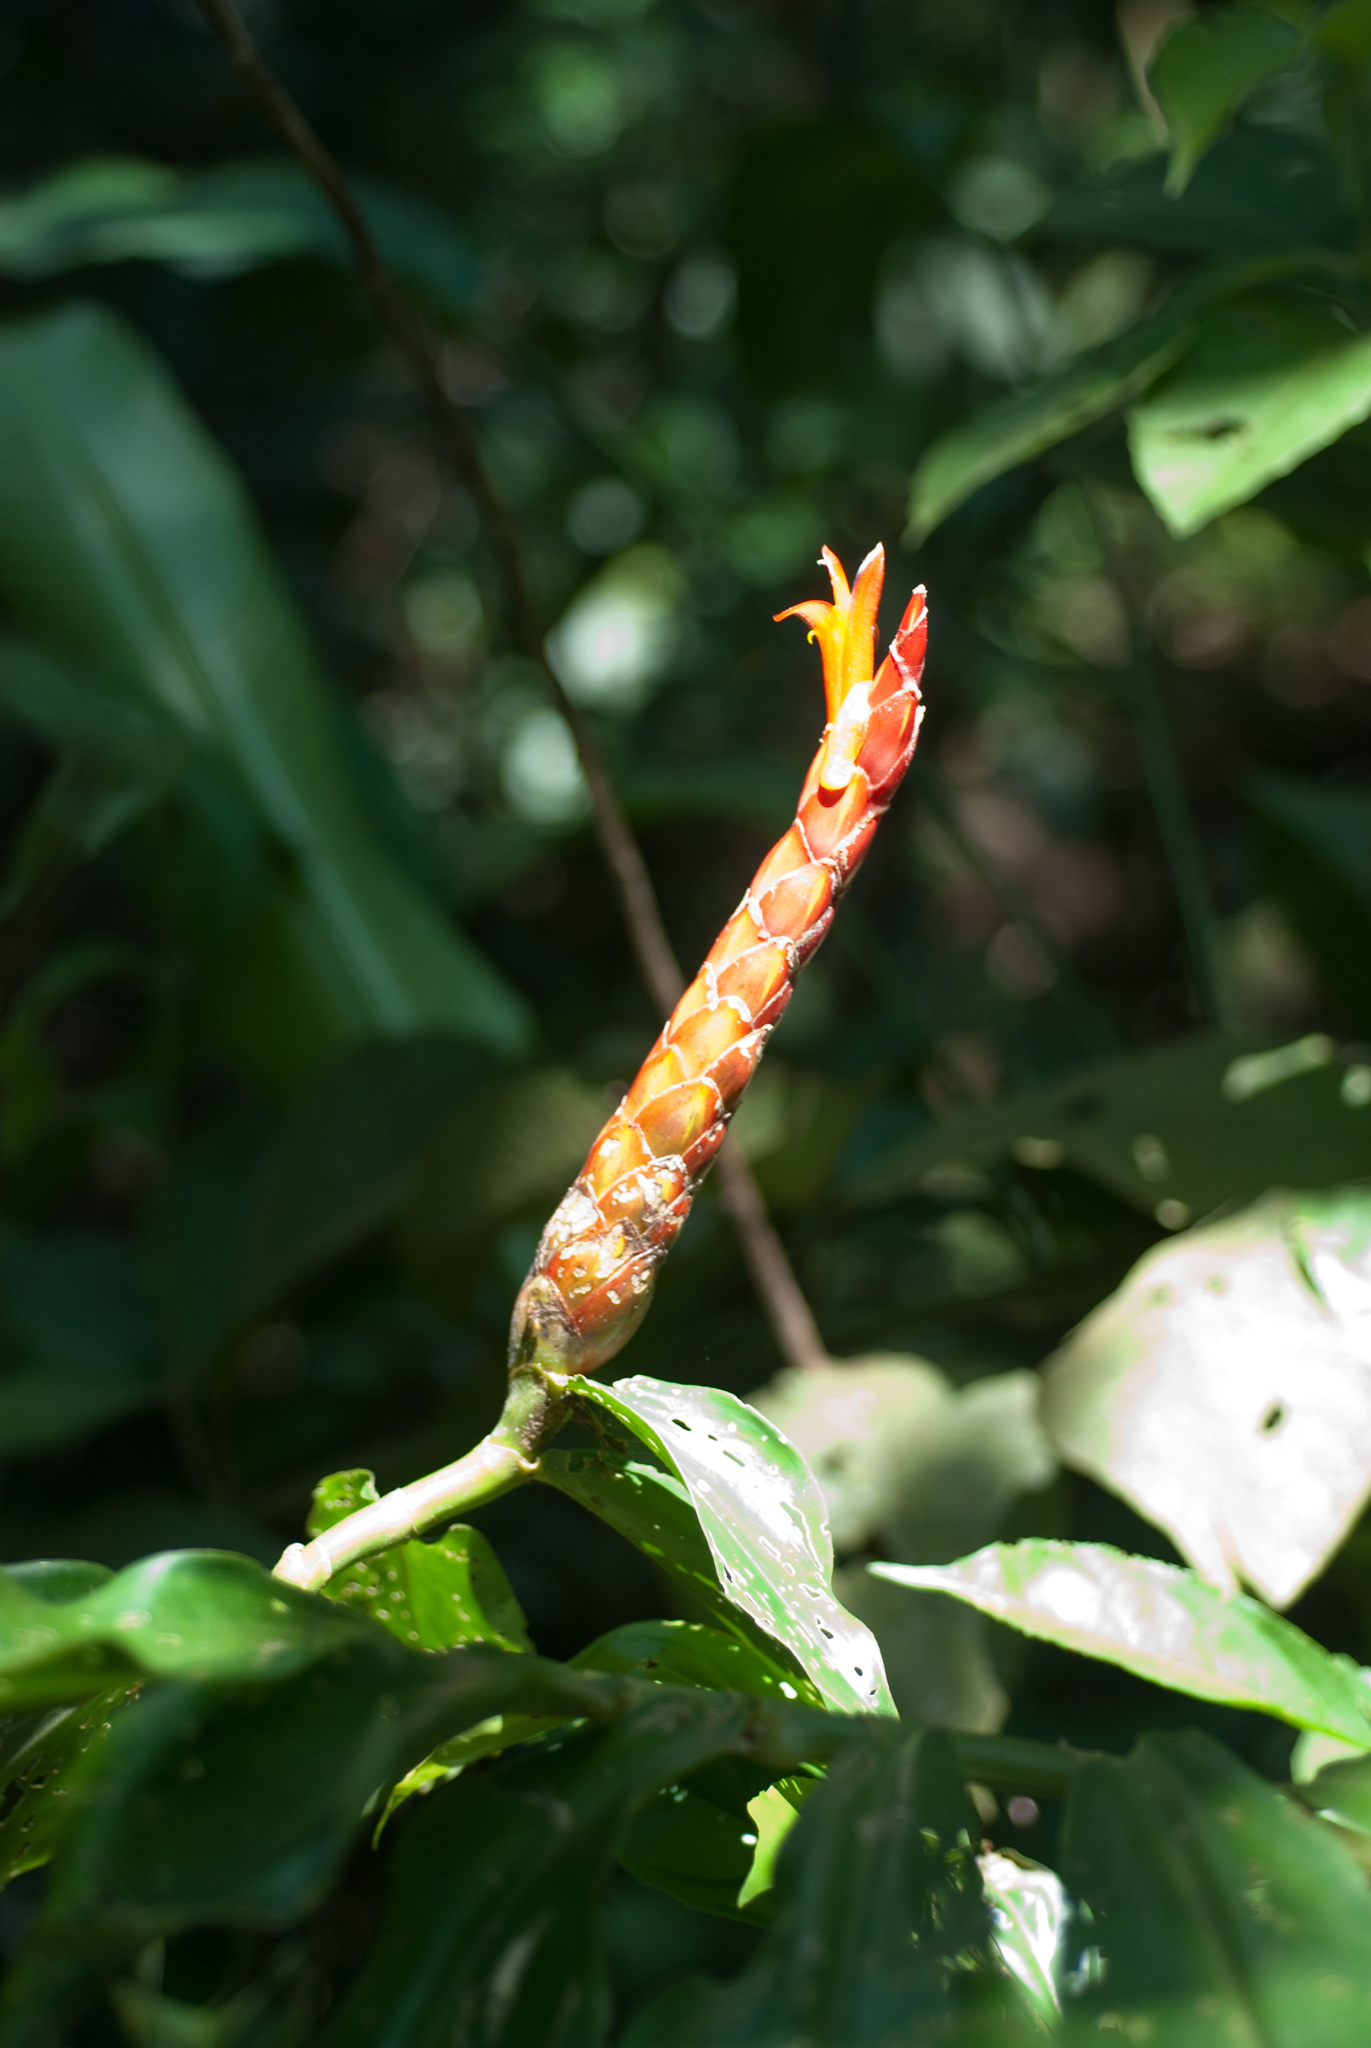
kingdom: Plantae
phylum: Tracheophyta
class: Liliopsida
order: Zingiberales
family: Costaceae
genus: Costus
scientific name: Costus pulverulentus
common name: Spiral ginger
